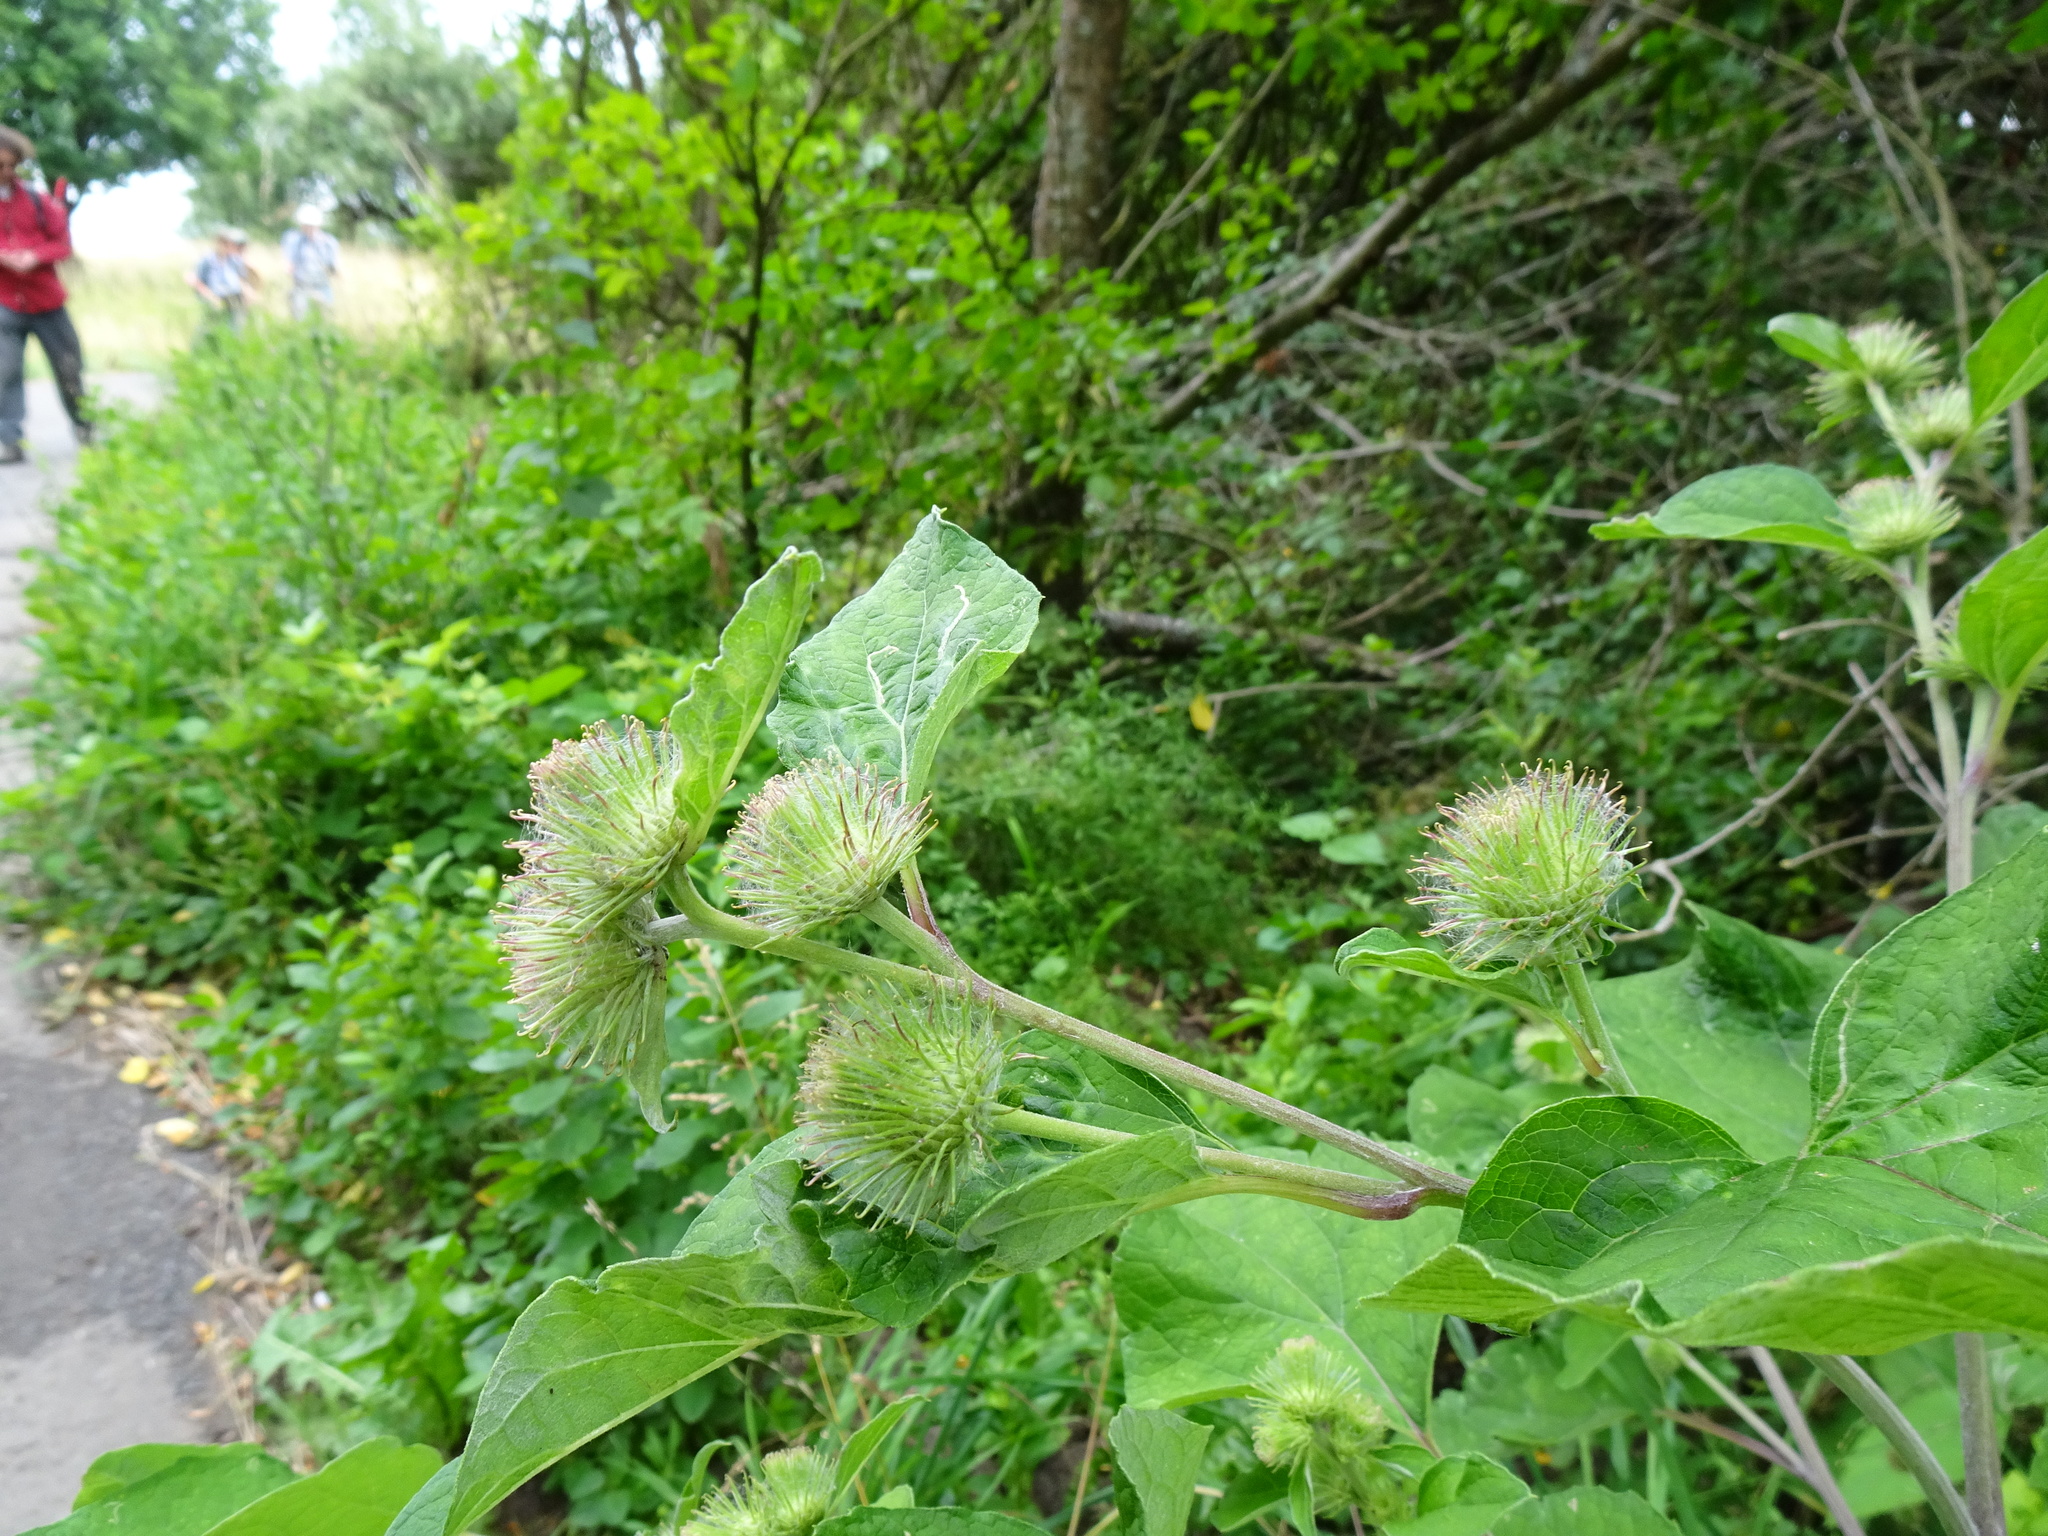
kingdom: Plantae
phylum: Tracheophyta
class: Magnoliopsida
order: Asterales
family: Asteraceae
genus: Arctium
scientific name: Arctium lappa
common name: Greater burdock
